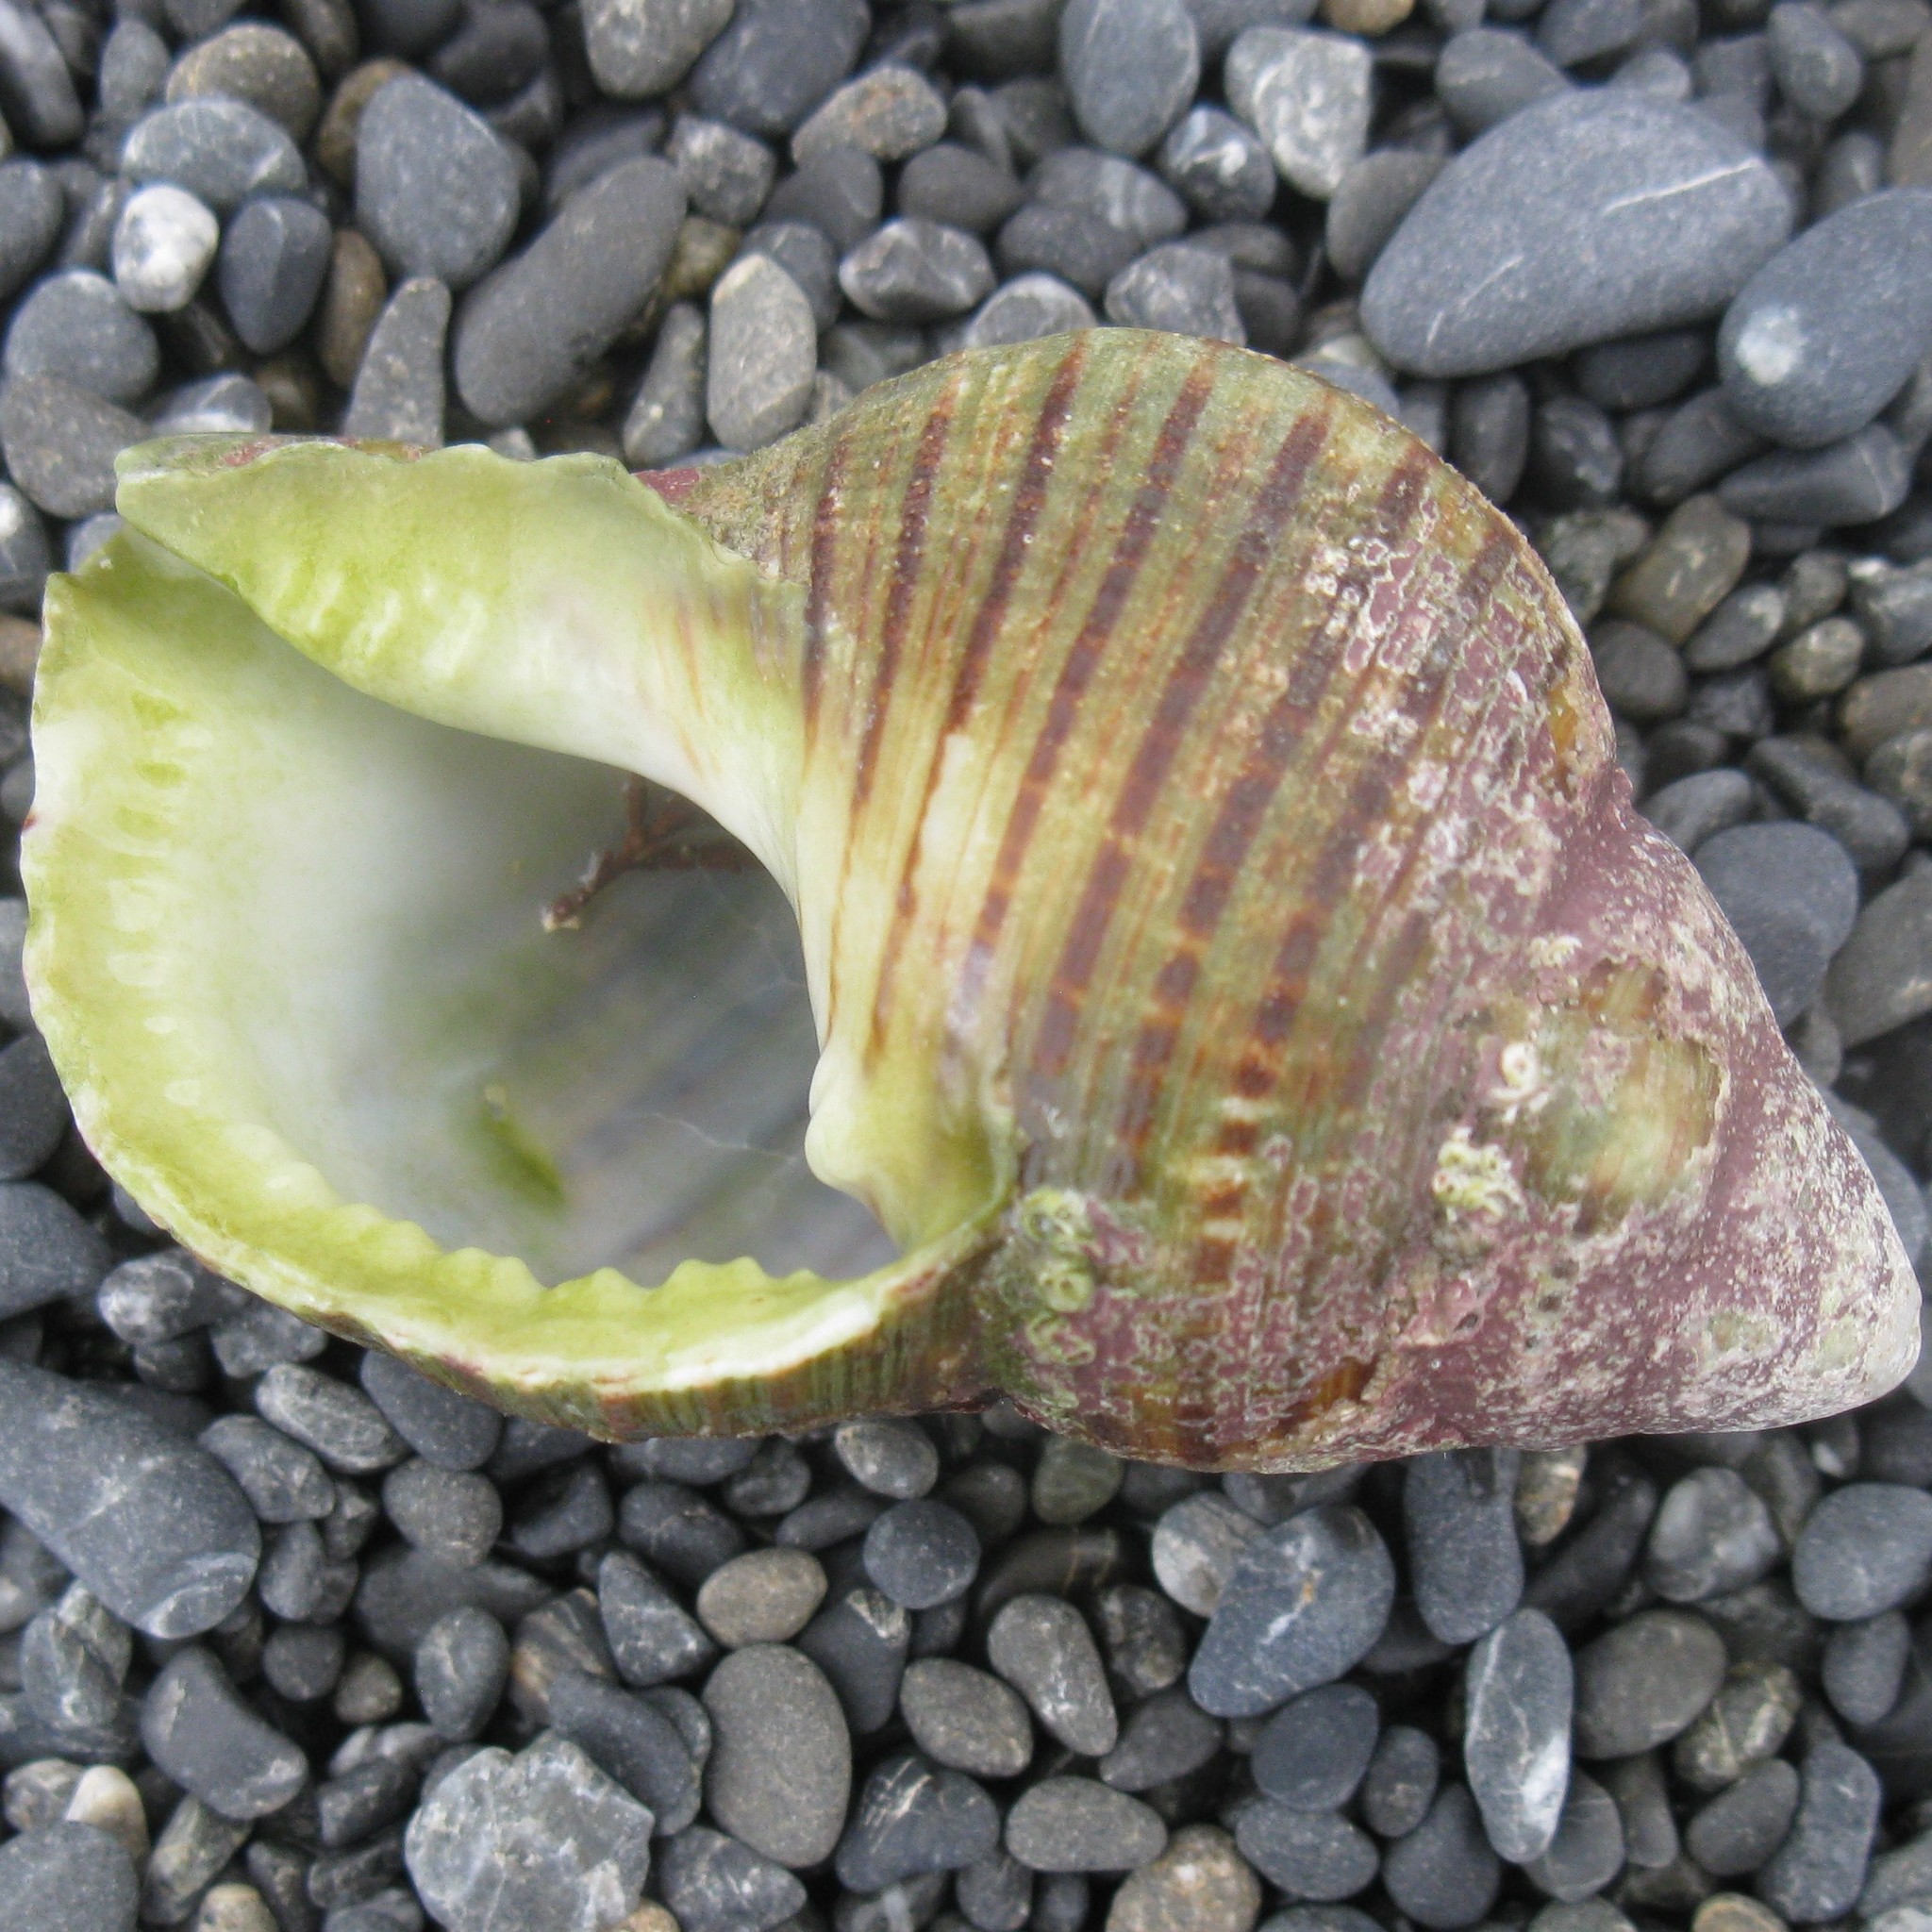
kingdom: Animalia
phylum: Mollusca
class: Gastropoda
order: Littorinimorpha
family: Cymatiidae
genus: Argobuccinum
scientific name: Argobuccinum pustulosum
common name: Pustular triton
